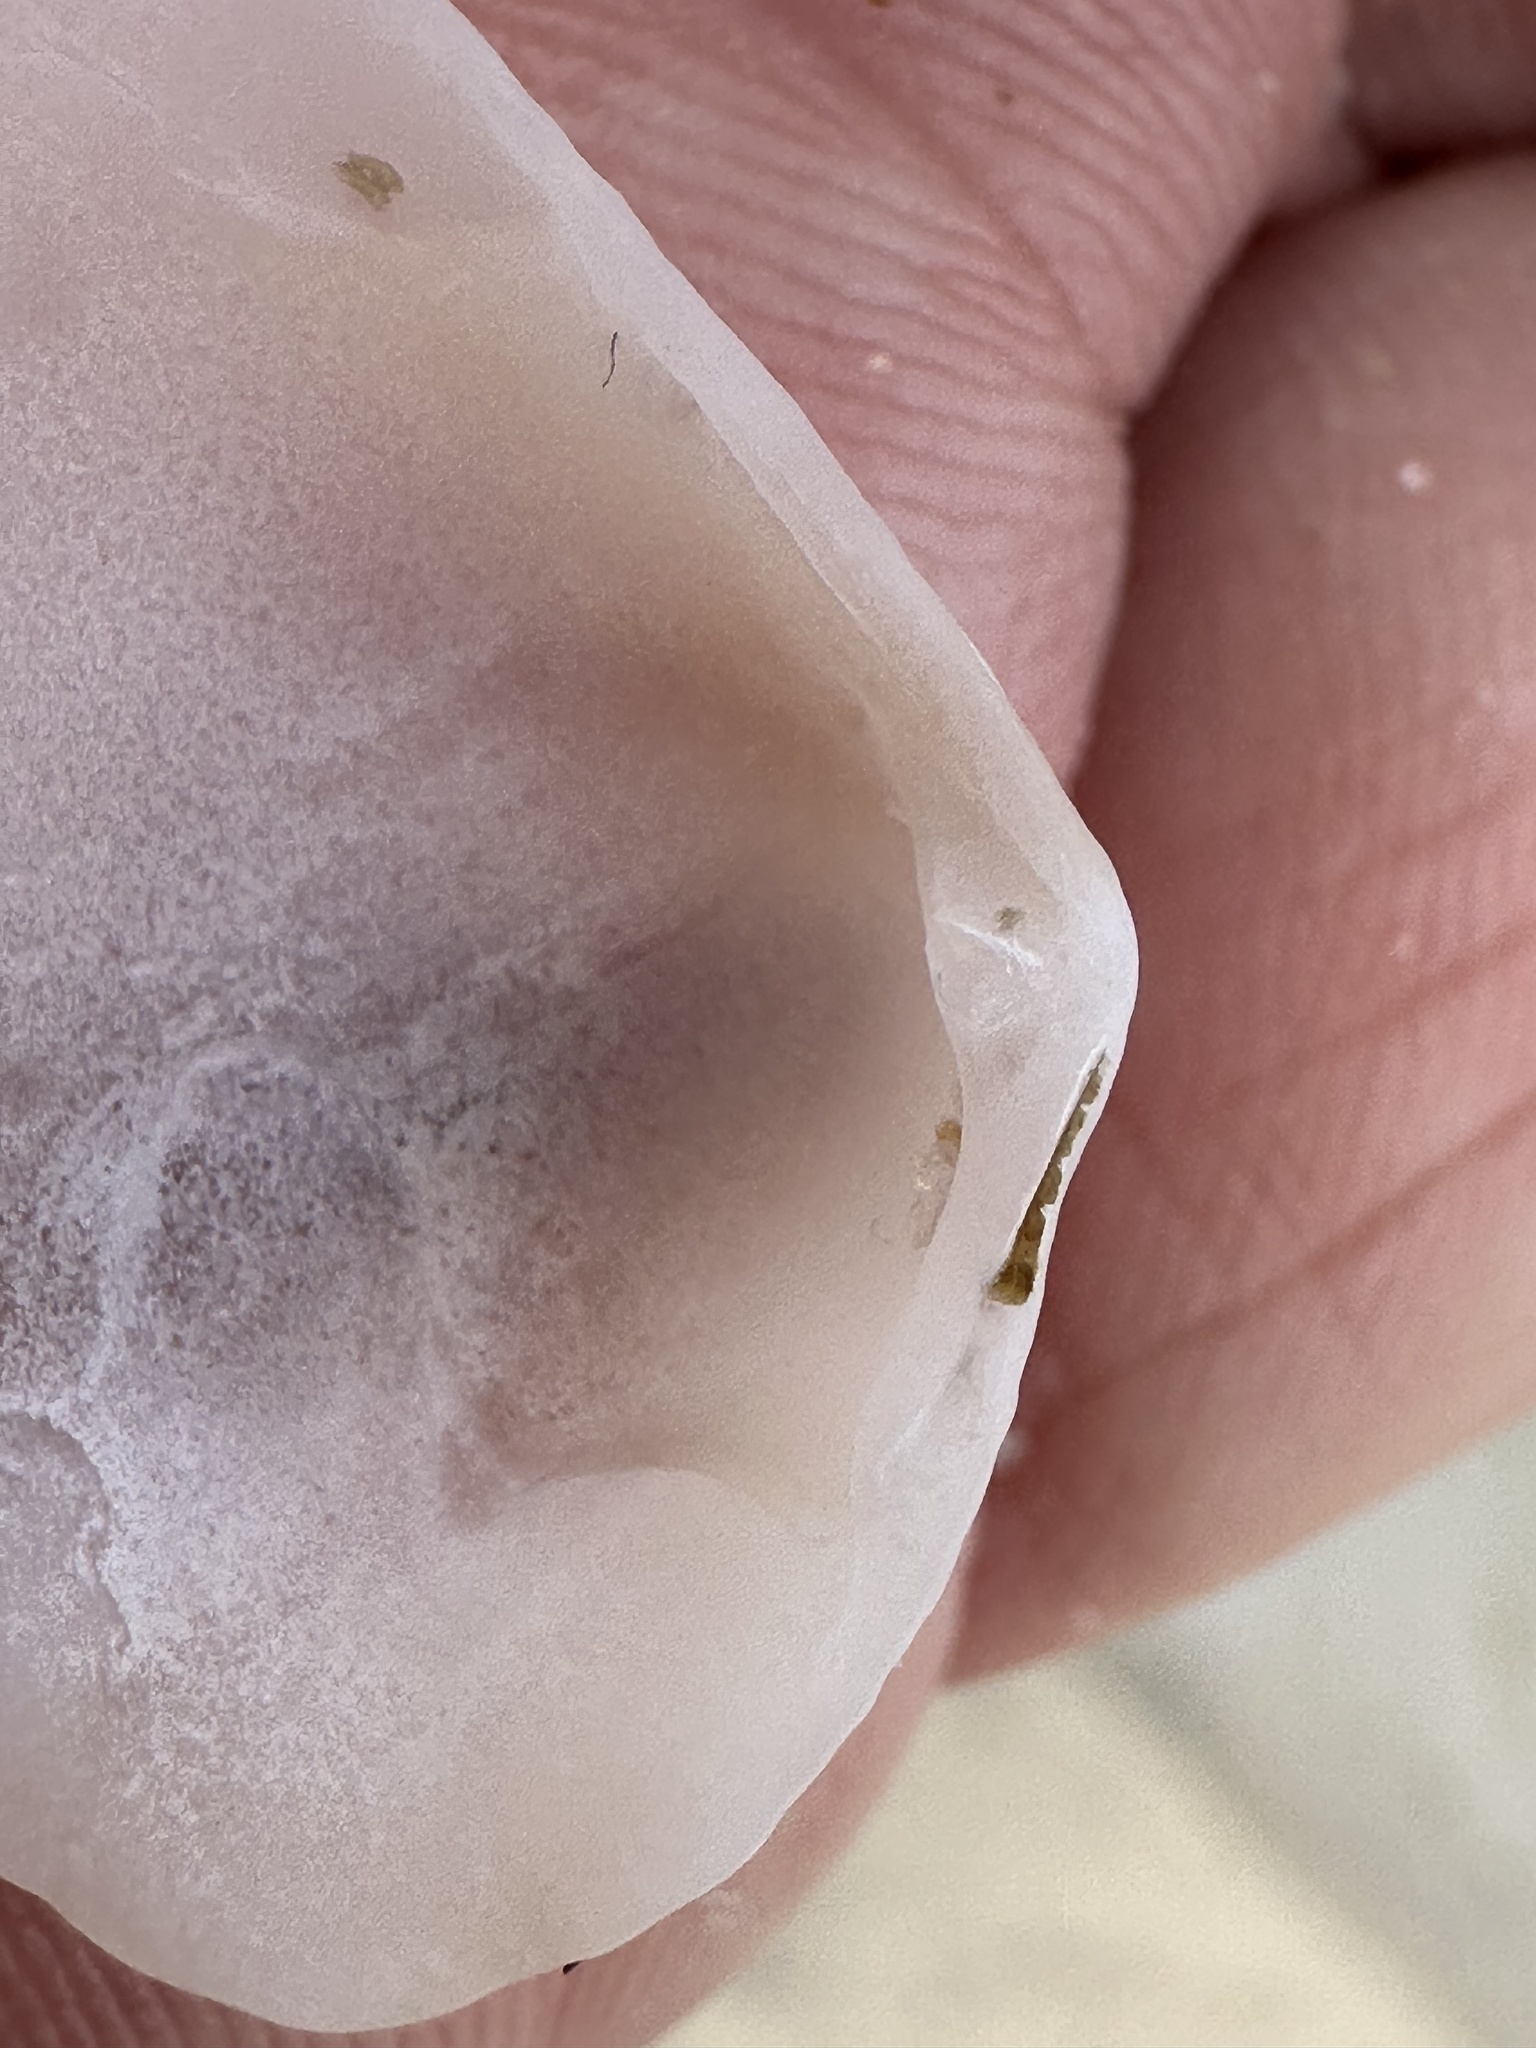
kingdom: Animalia
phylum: Mollusca
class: Bivalvia
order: Cardiida
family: Donacidae
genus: Donax
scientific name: Donax faba
